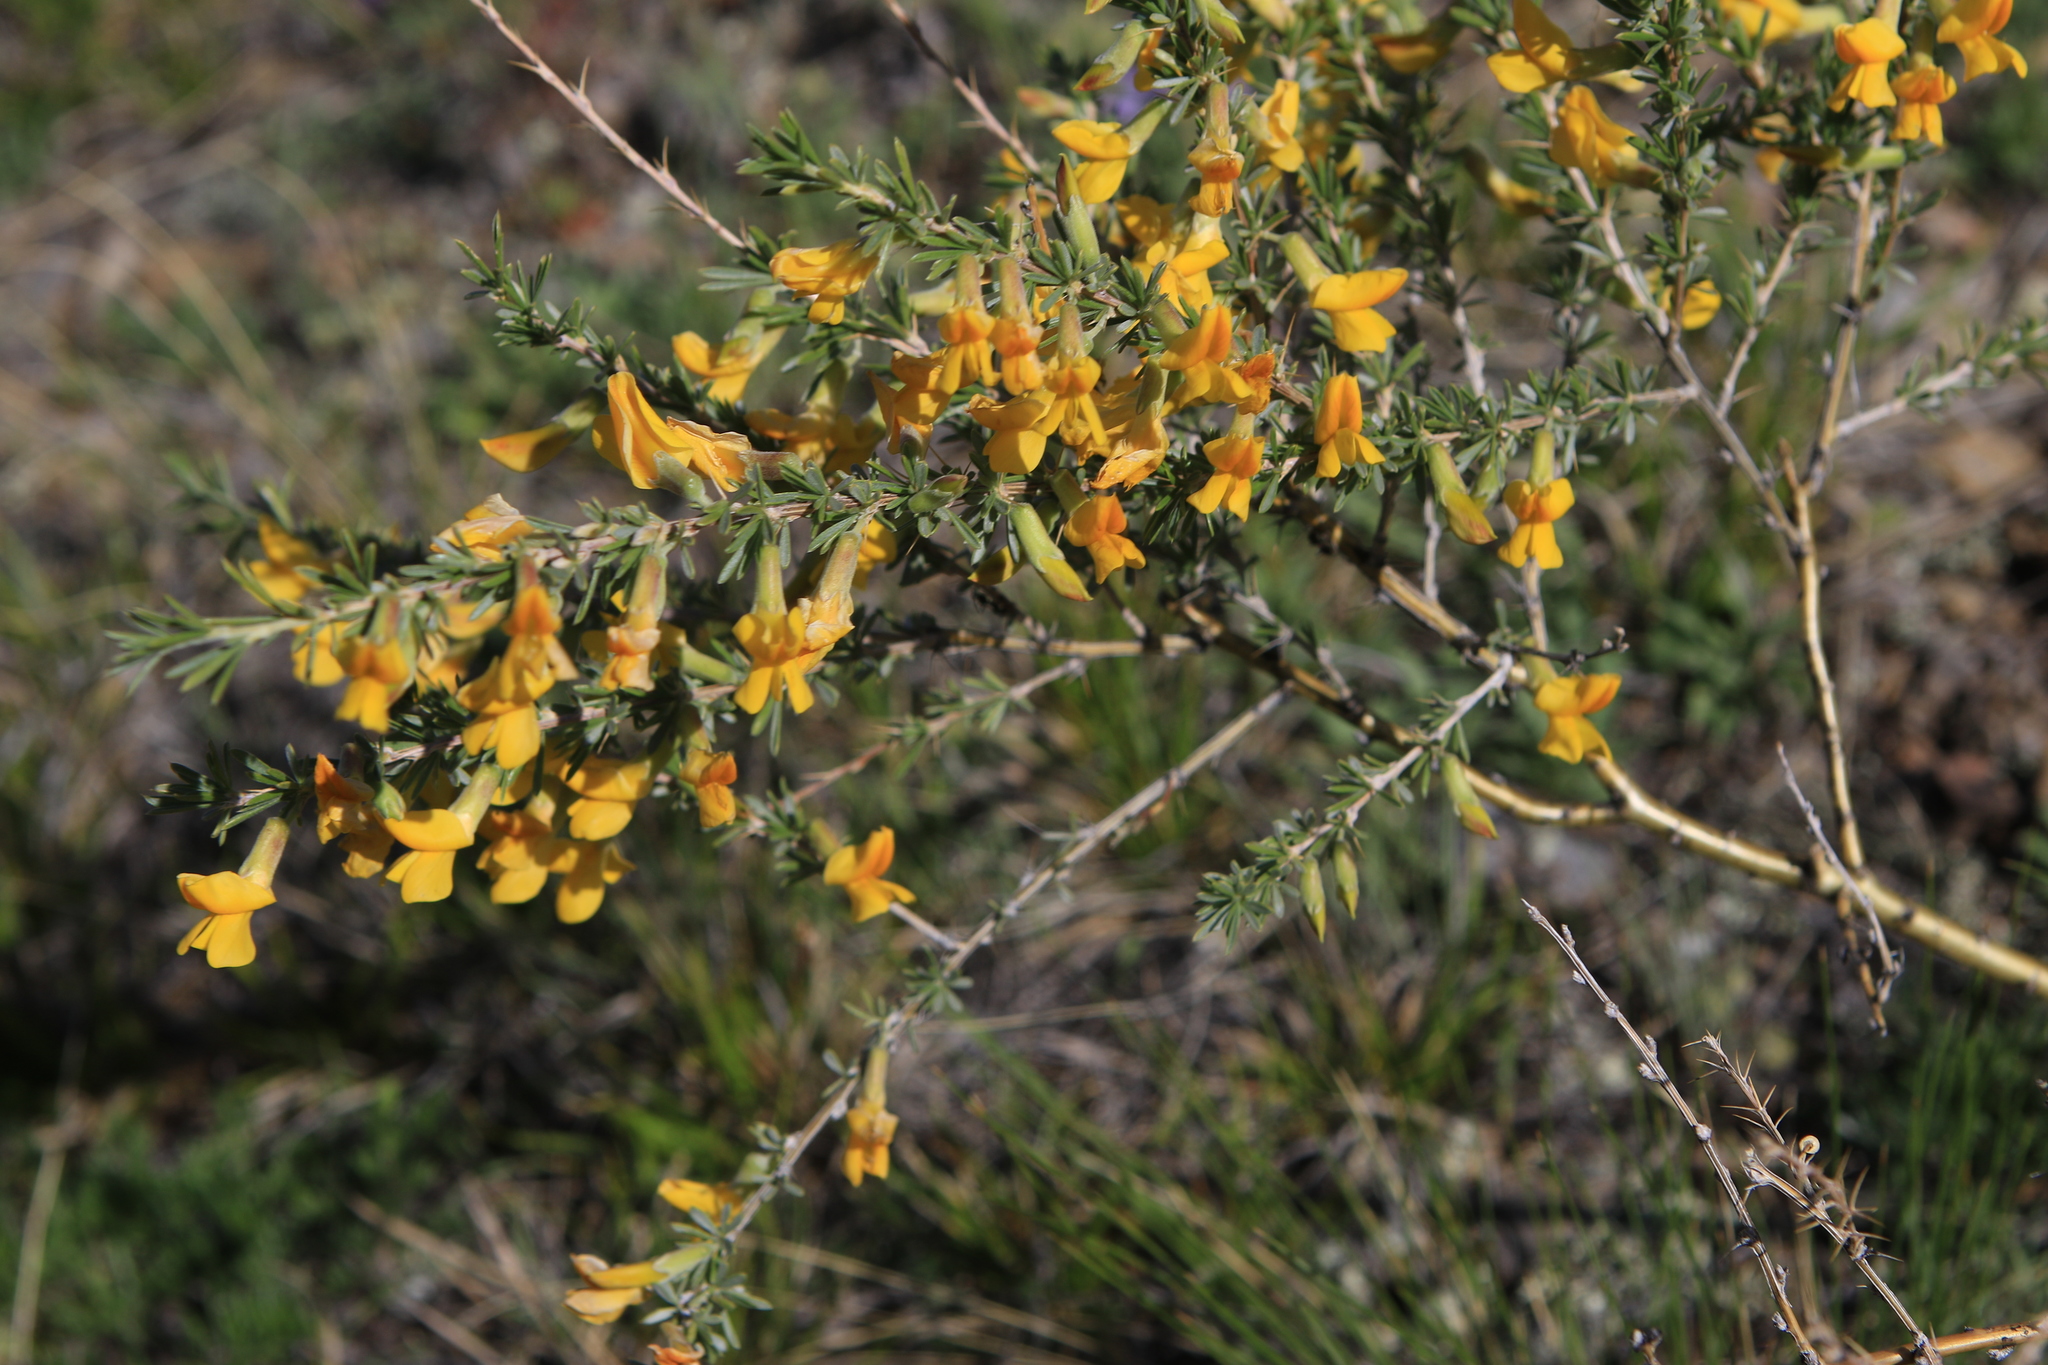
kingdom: Plantae
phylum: Tracheophyta
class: Magnoliopsida
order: Fabales
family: Fabaceae
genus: Caragana
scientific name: Caragana pygmaea
